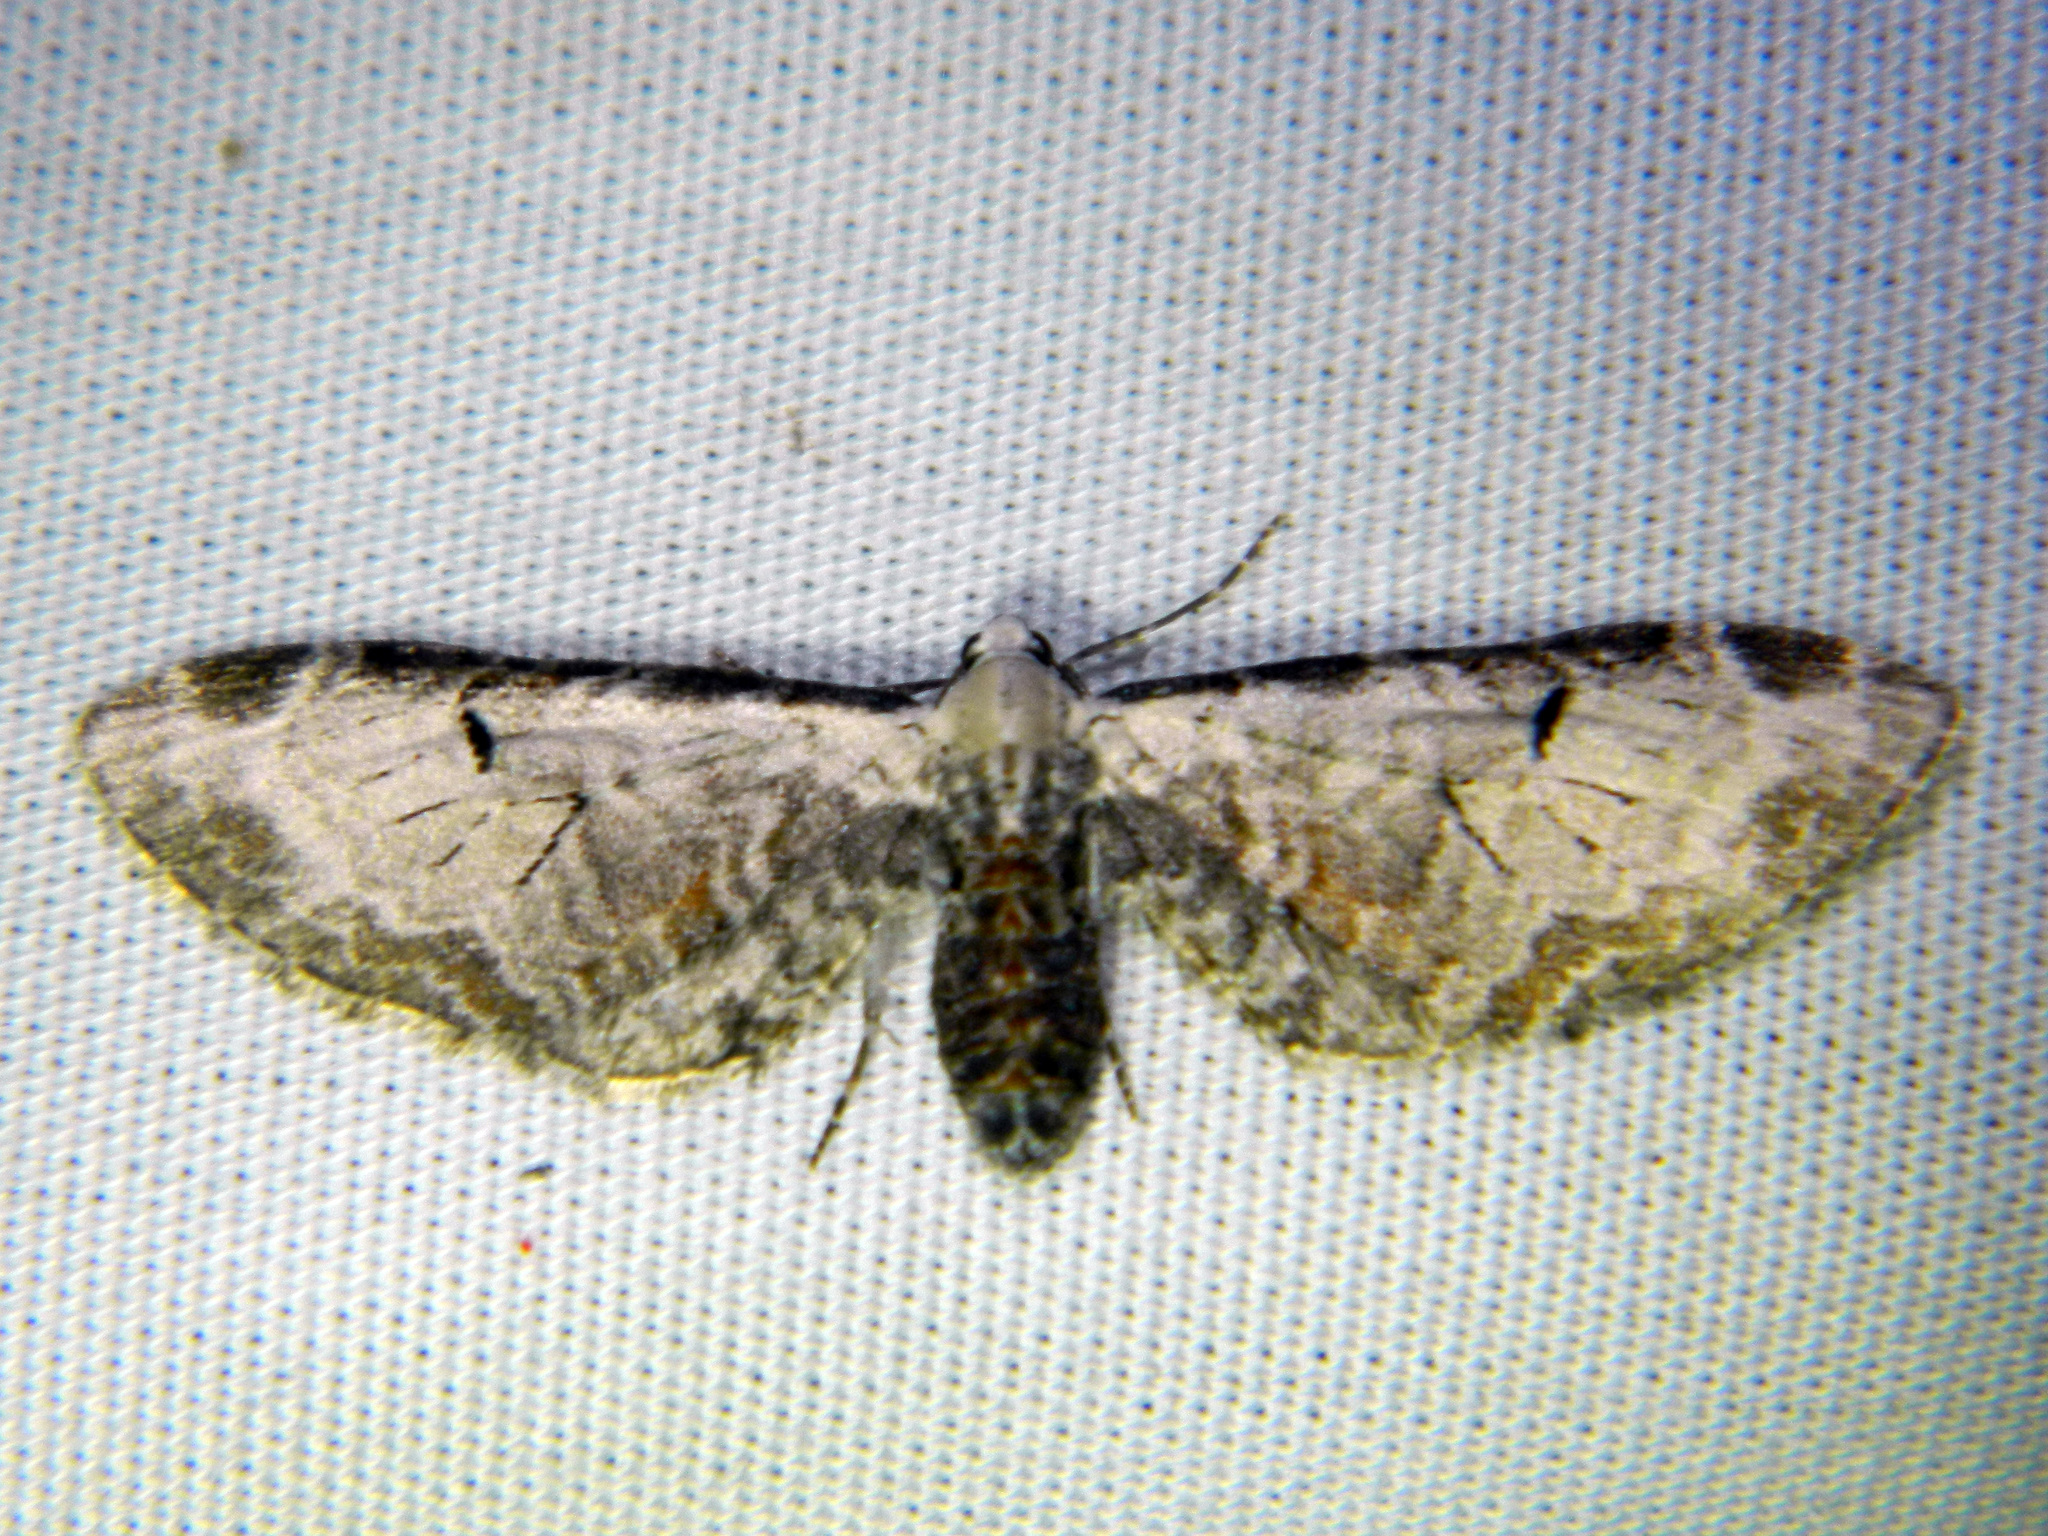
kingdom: Animalia
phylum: Arthropoda
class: Insecta
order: Lepidoptera
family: Geometridae
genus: Eupithecia
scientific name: Eupithecia ravocostaliata
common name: Great varigated pug
